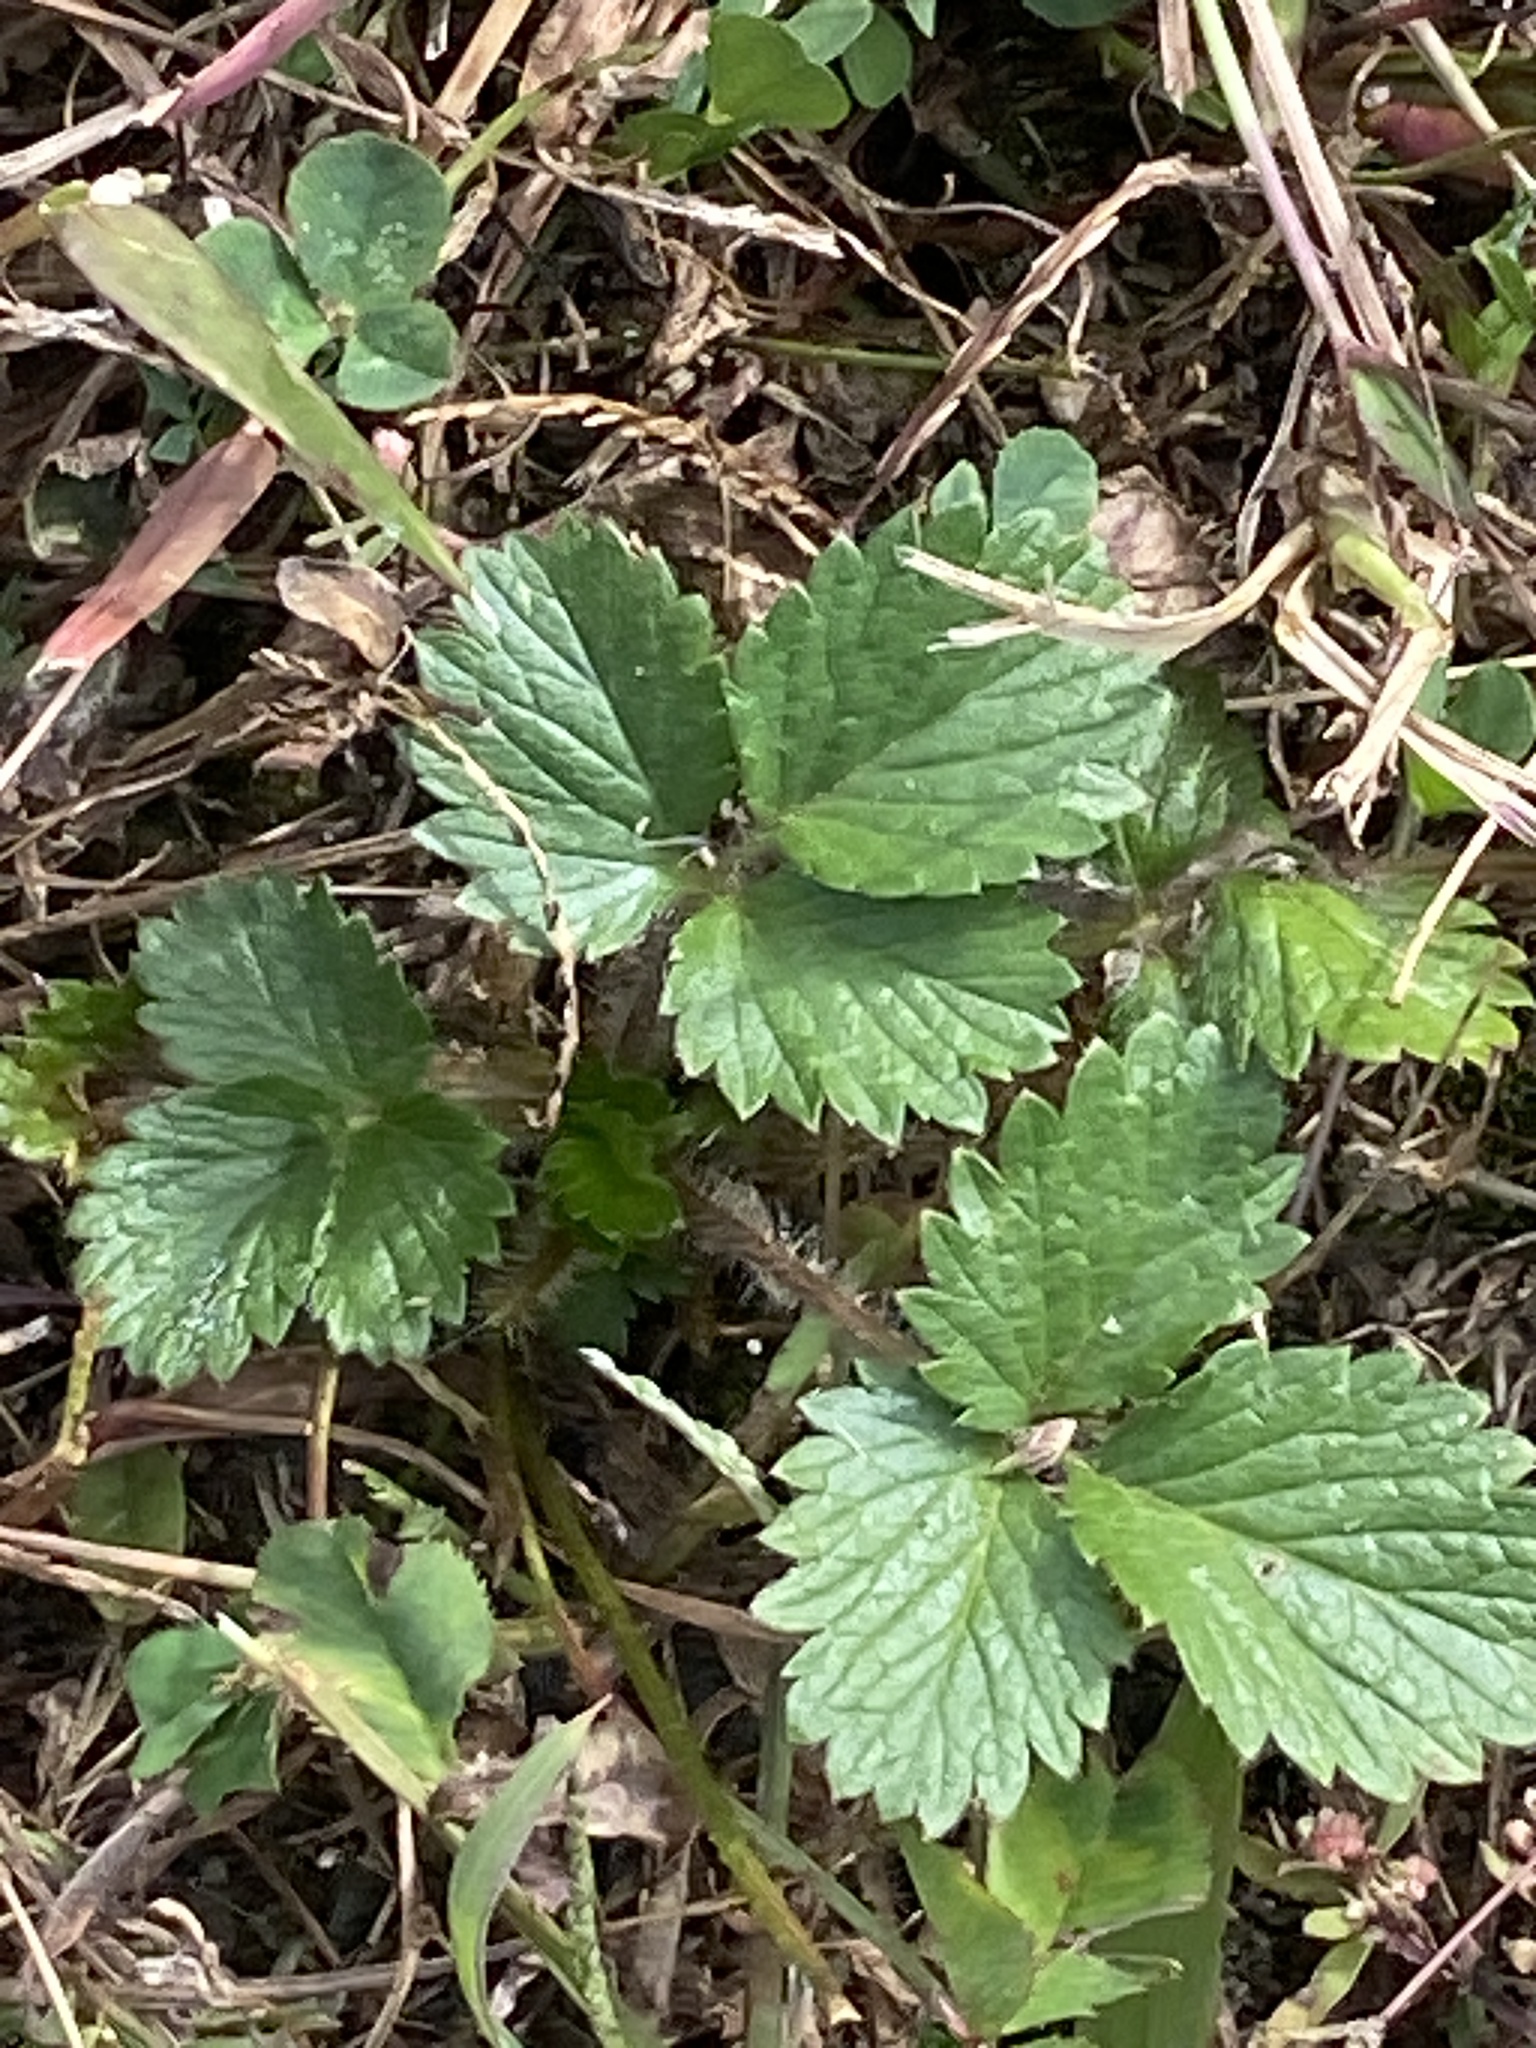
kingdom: Plantae
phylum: Tracheophyta
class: Magnoliopsida
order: Rosales
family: Rosaceae
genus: Potentilla
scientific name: Potentilla indica
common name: Yellow-flowered strawberry
